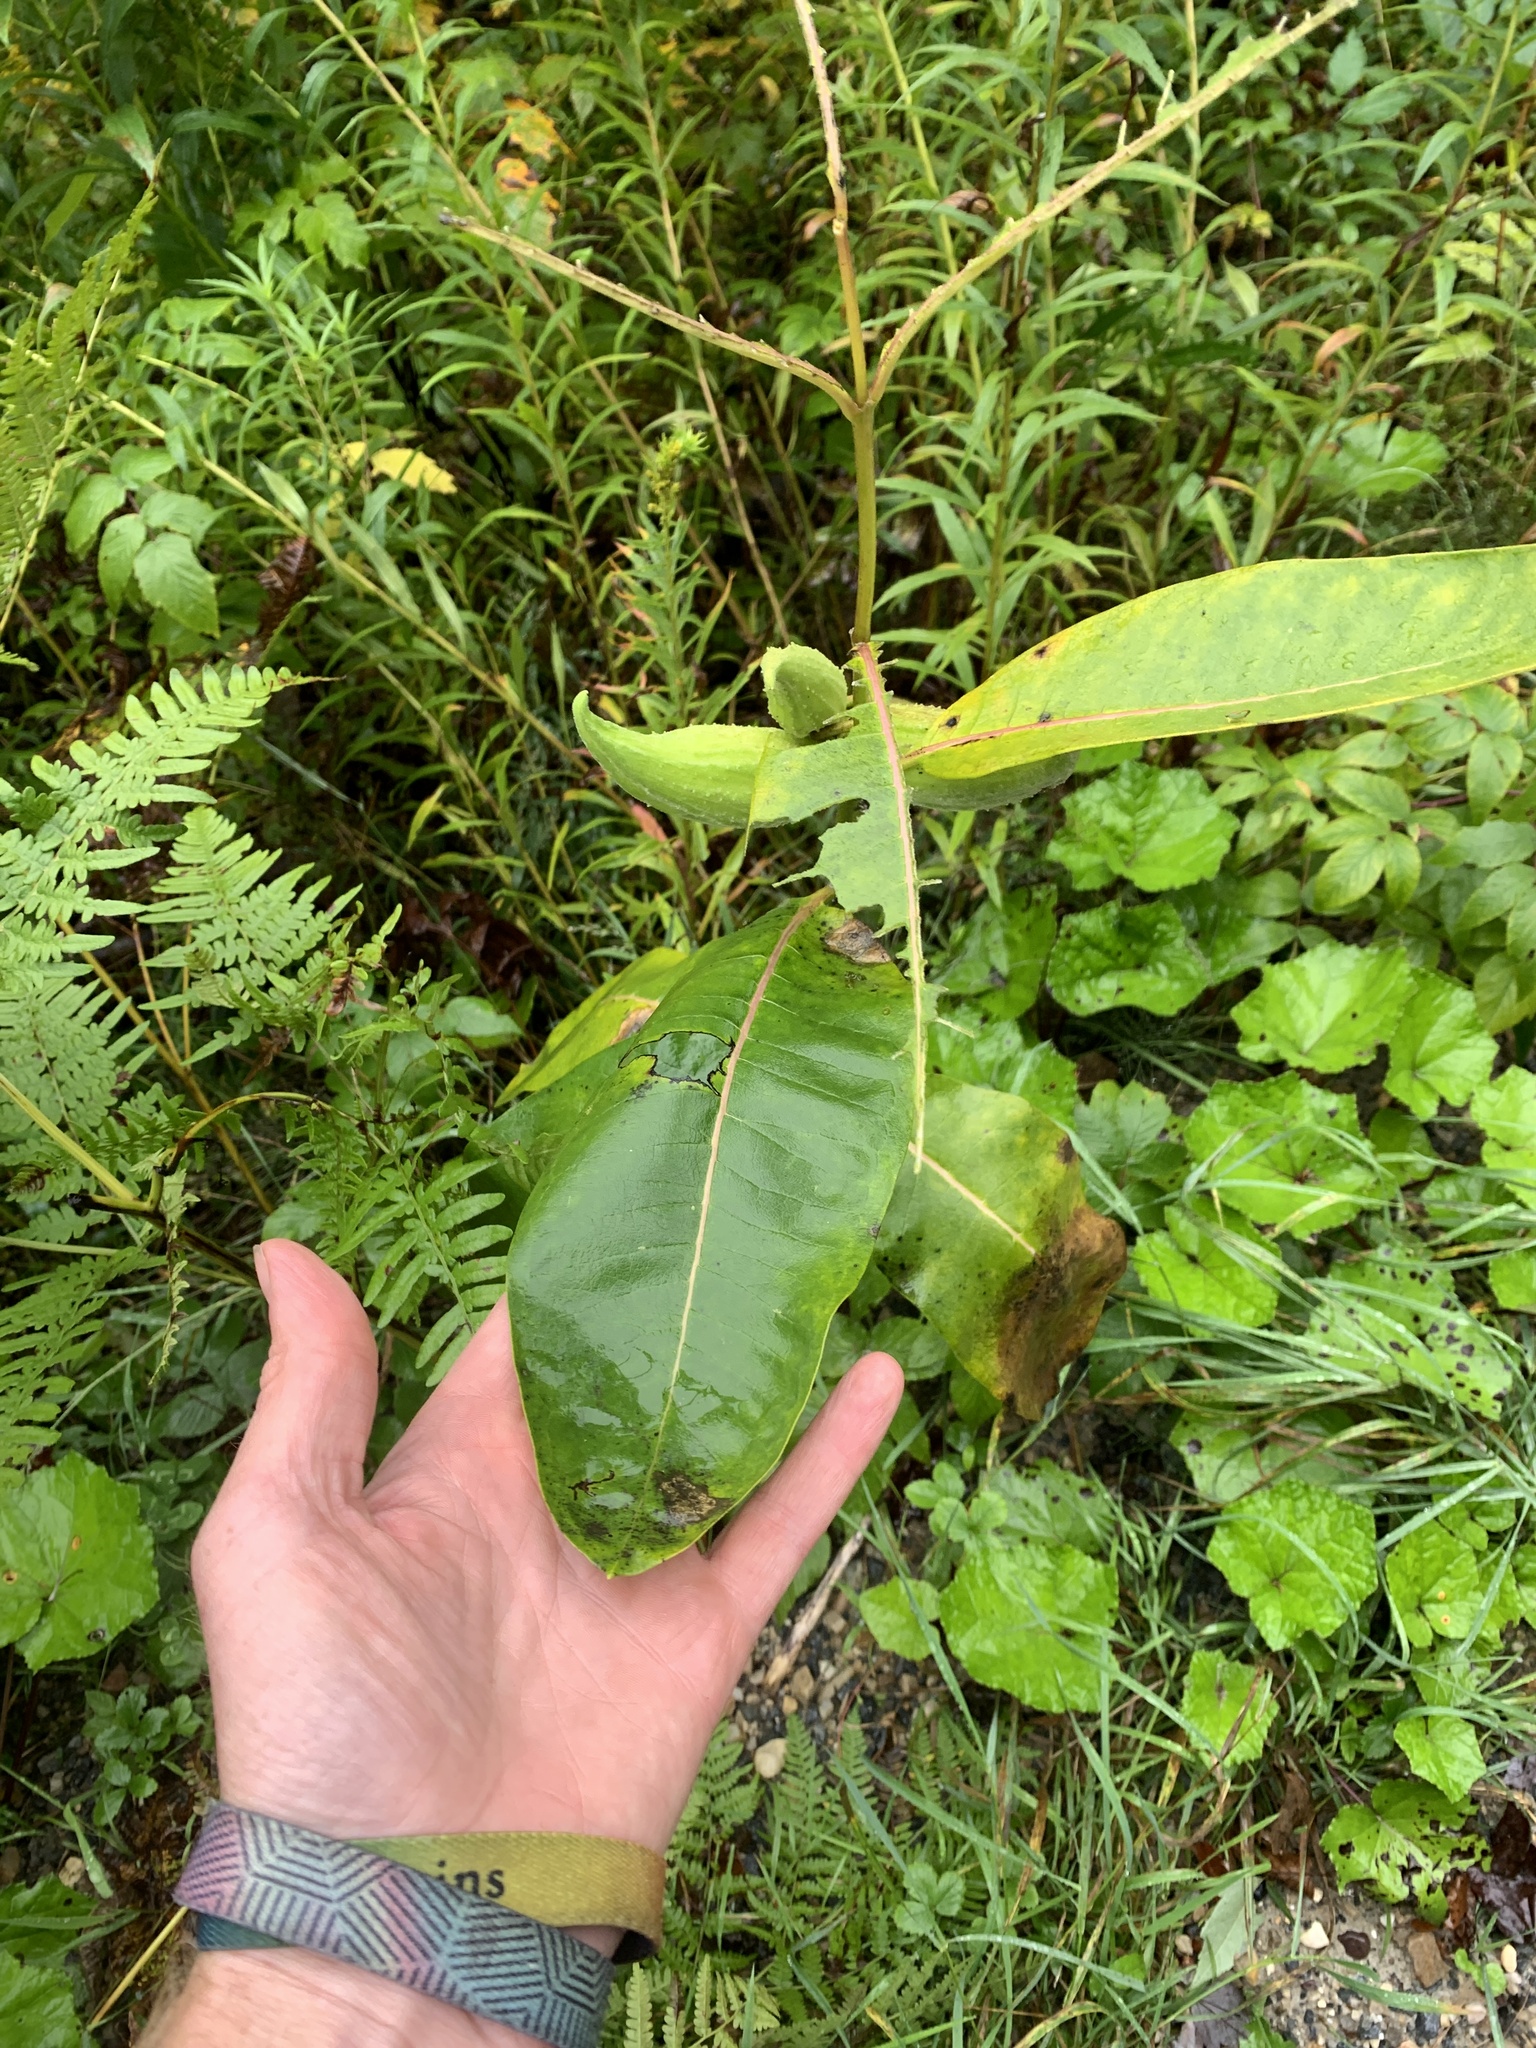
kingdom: Plantae
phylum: Tracheophyta
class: Magnoliopsida
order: Gentianales
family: Apocynaceae
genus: Asclepias
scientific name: Asclepias syriaca
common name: Common milkweed
